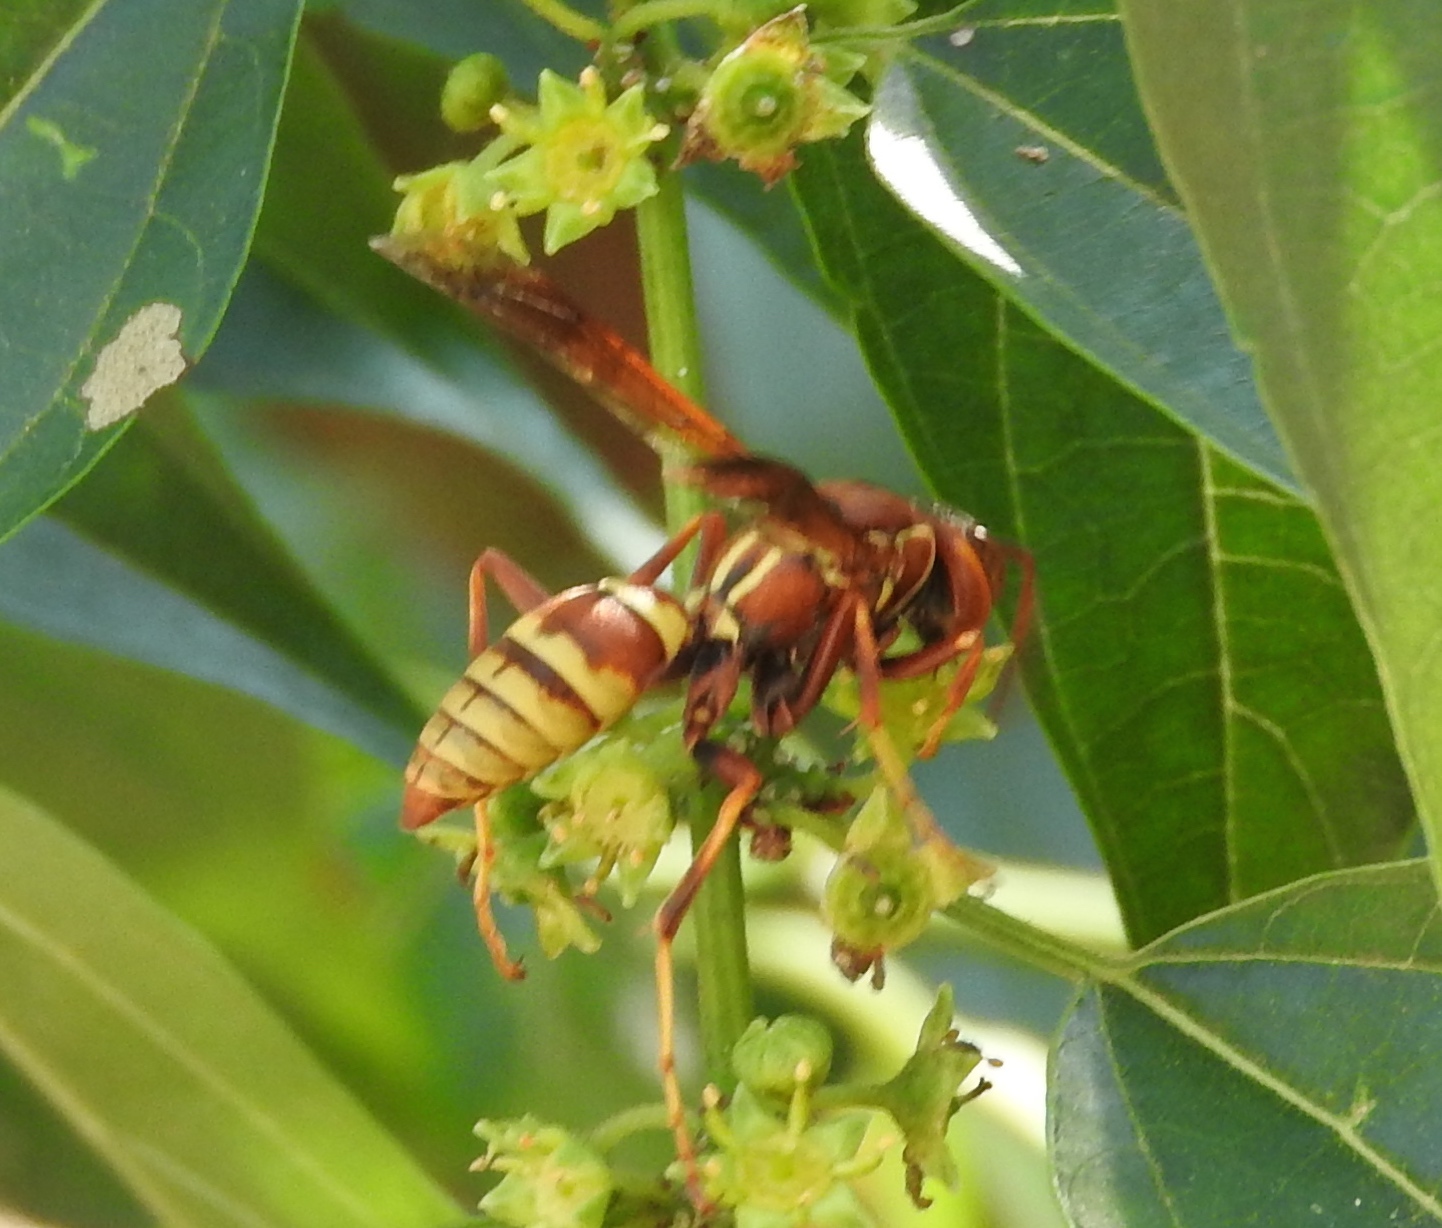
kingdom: Animalia
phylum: Arthropoda
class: Insecta
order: Hymenoptera
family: Eumenidae
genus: Polistes
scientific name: Polistes dorsalis
